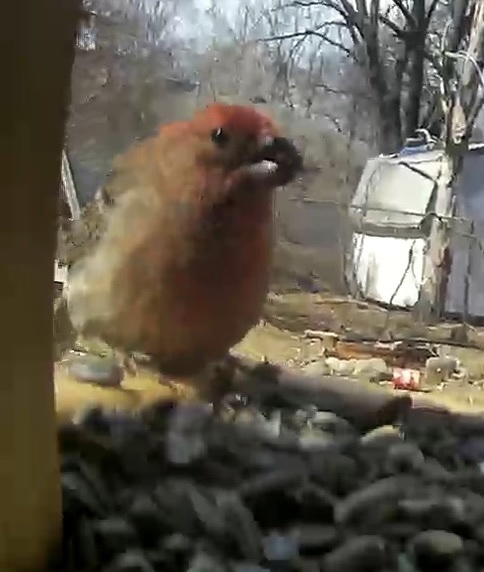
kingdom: Animalia
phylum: Chordata
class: Aves
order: Passeriformes
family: Fringillidae
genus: Haemorhous
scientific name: Haemorhous mexicanus
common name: House finch
